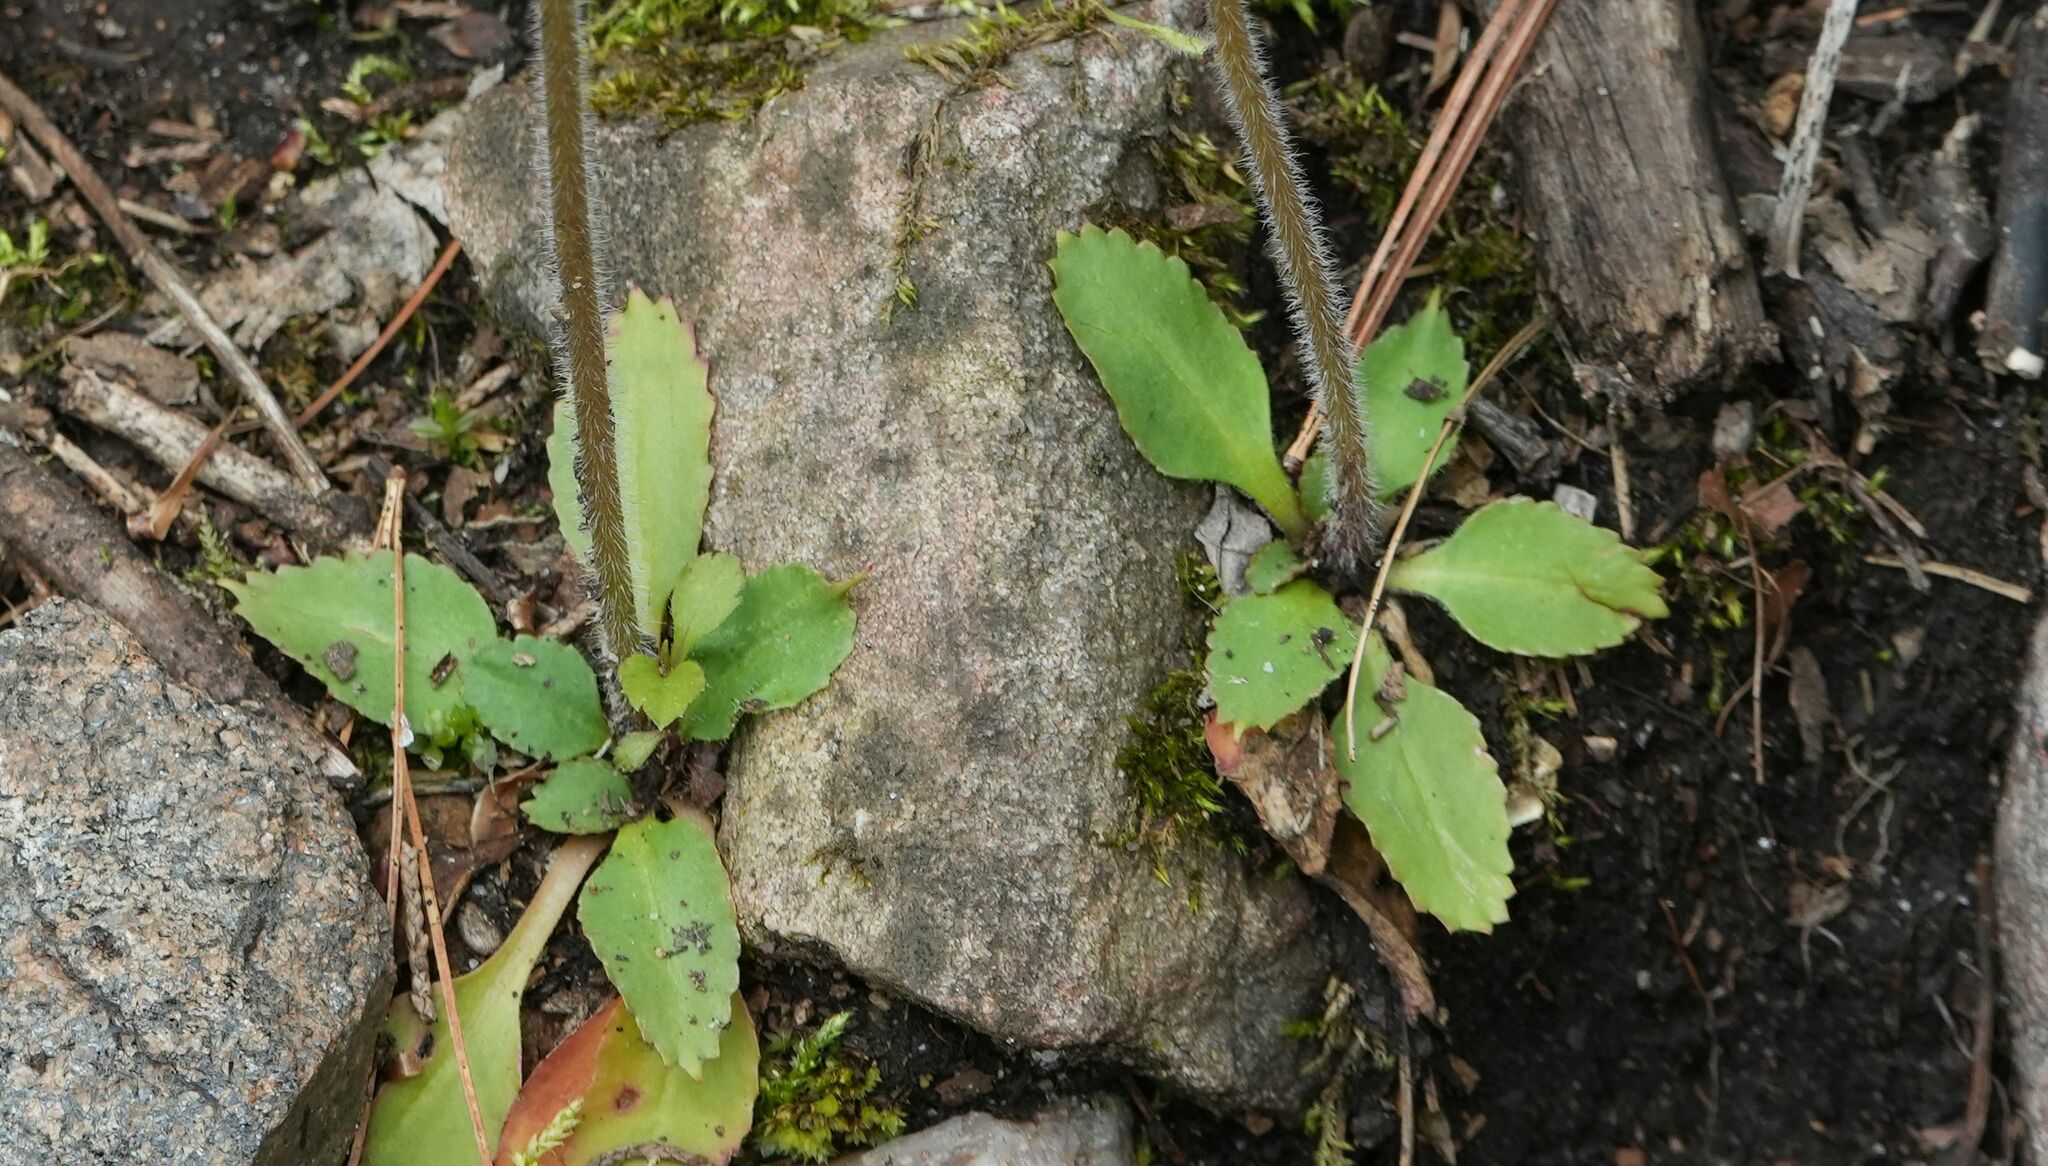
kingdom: Plantae
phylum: Tracheophyta
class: Magnoliopsida
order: Saxifragales
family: Saxifragaceae
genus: Micranthes
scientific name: Micranthes virginiensis
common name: Early saxifrage
